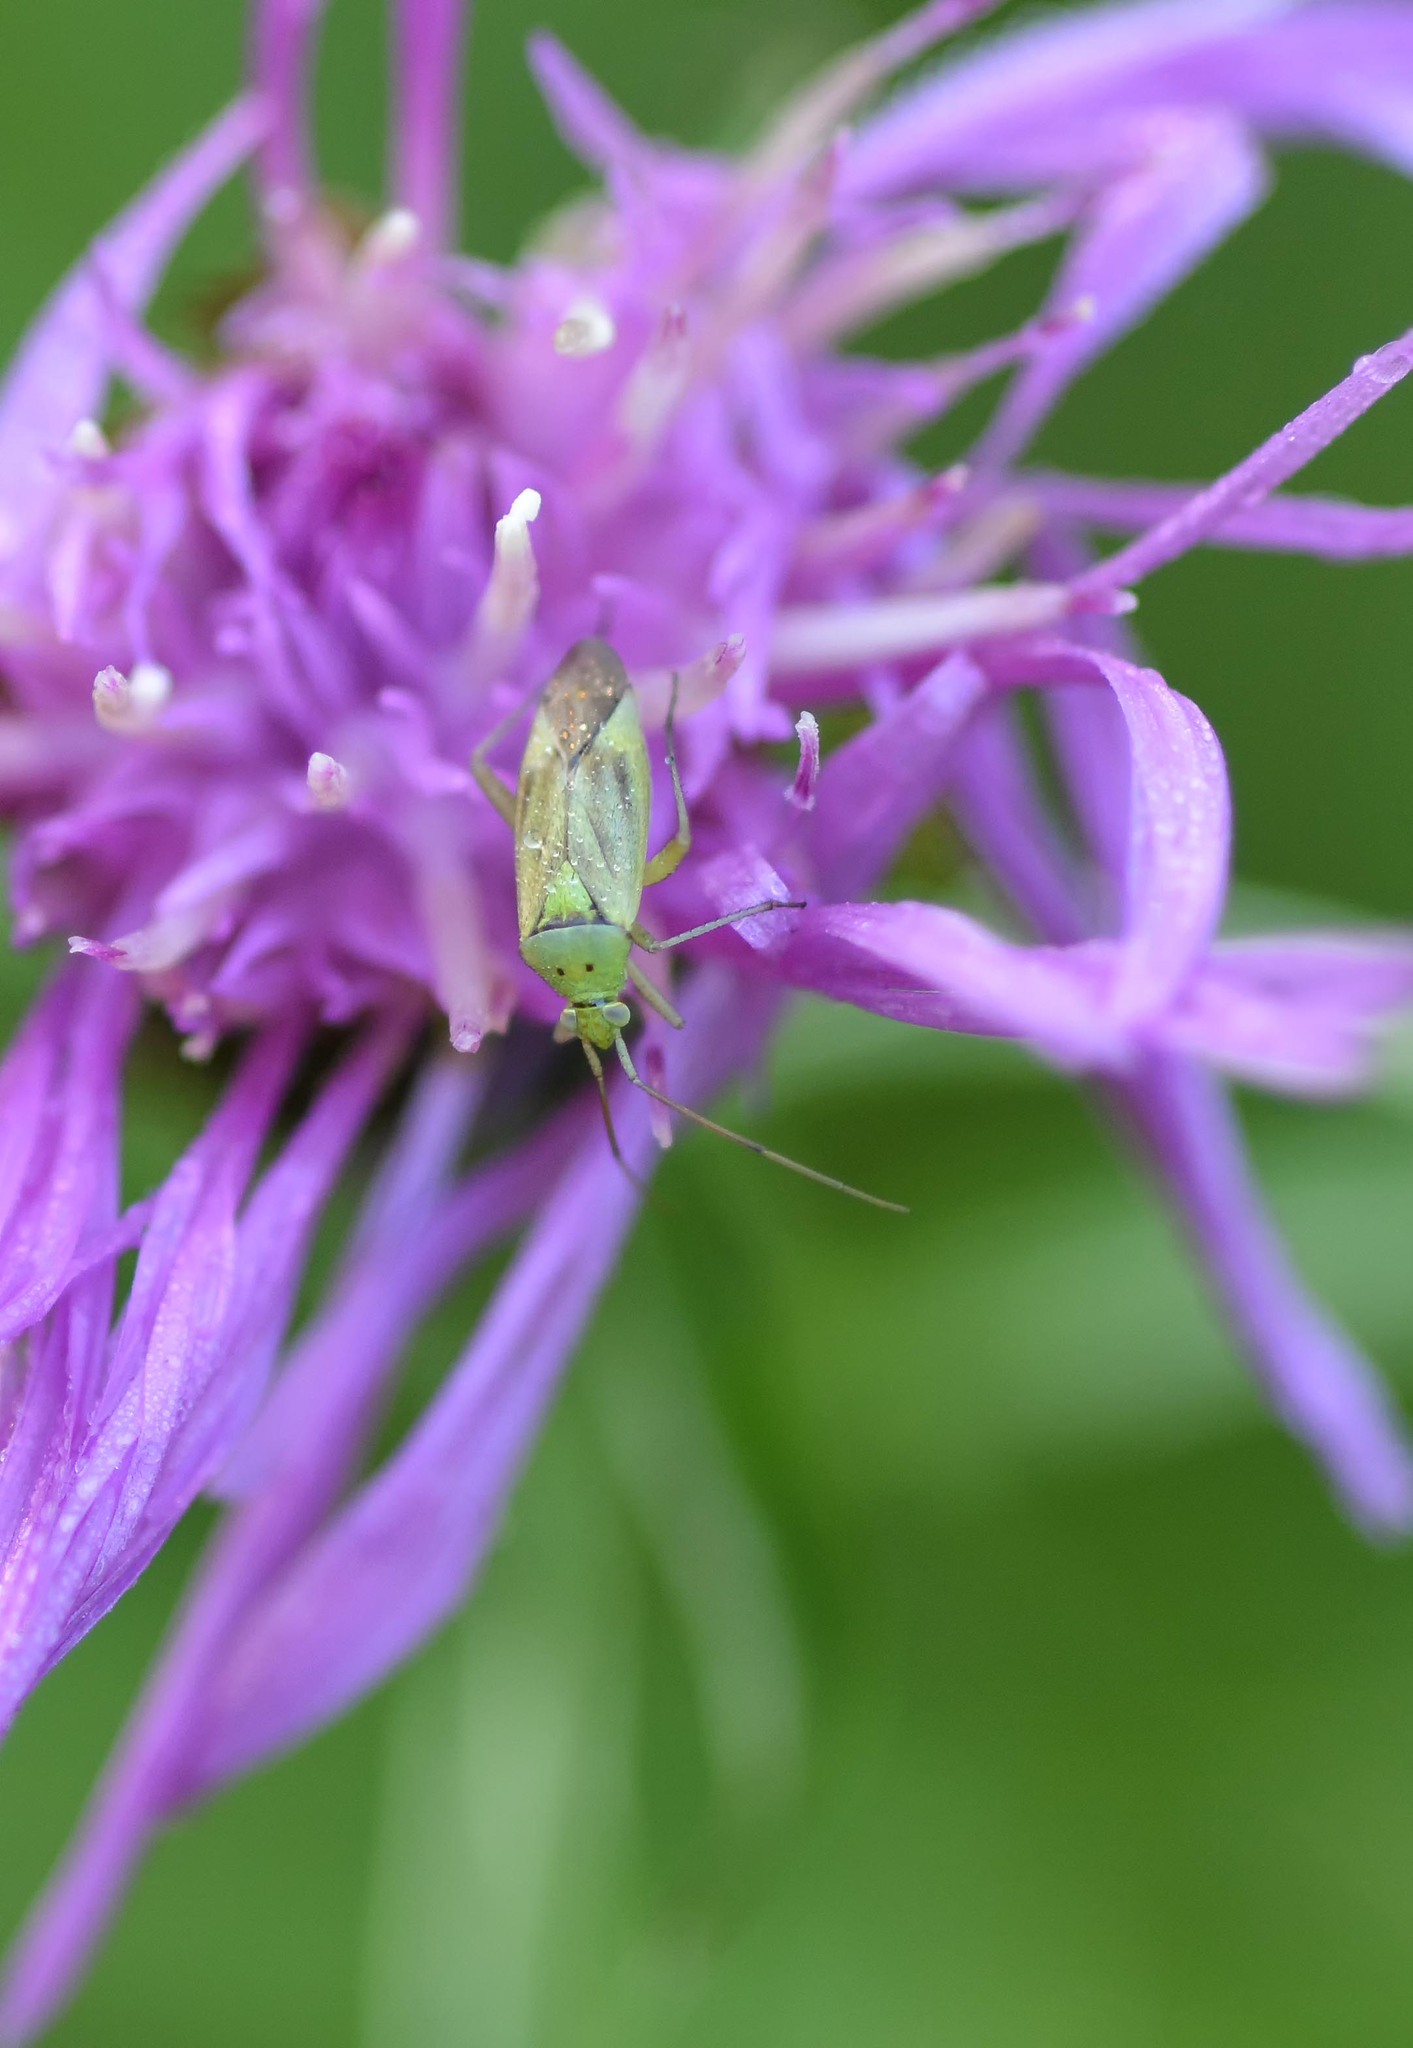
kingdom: Animalia
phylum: Arthropoda
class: Insecta
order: Hemiptera
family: Miridae
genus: Closterotomus
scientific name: Closterotomus norvegicus
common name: Plant bug
